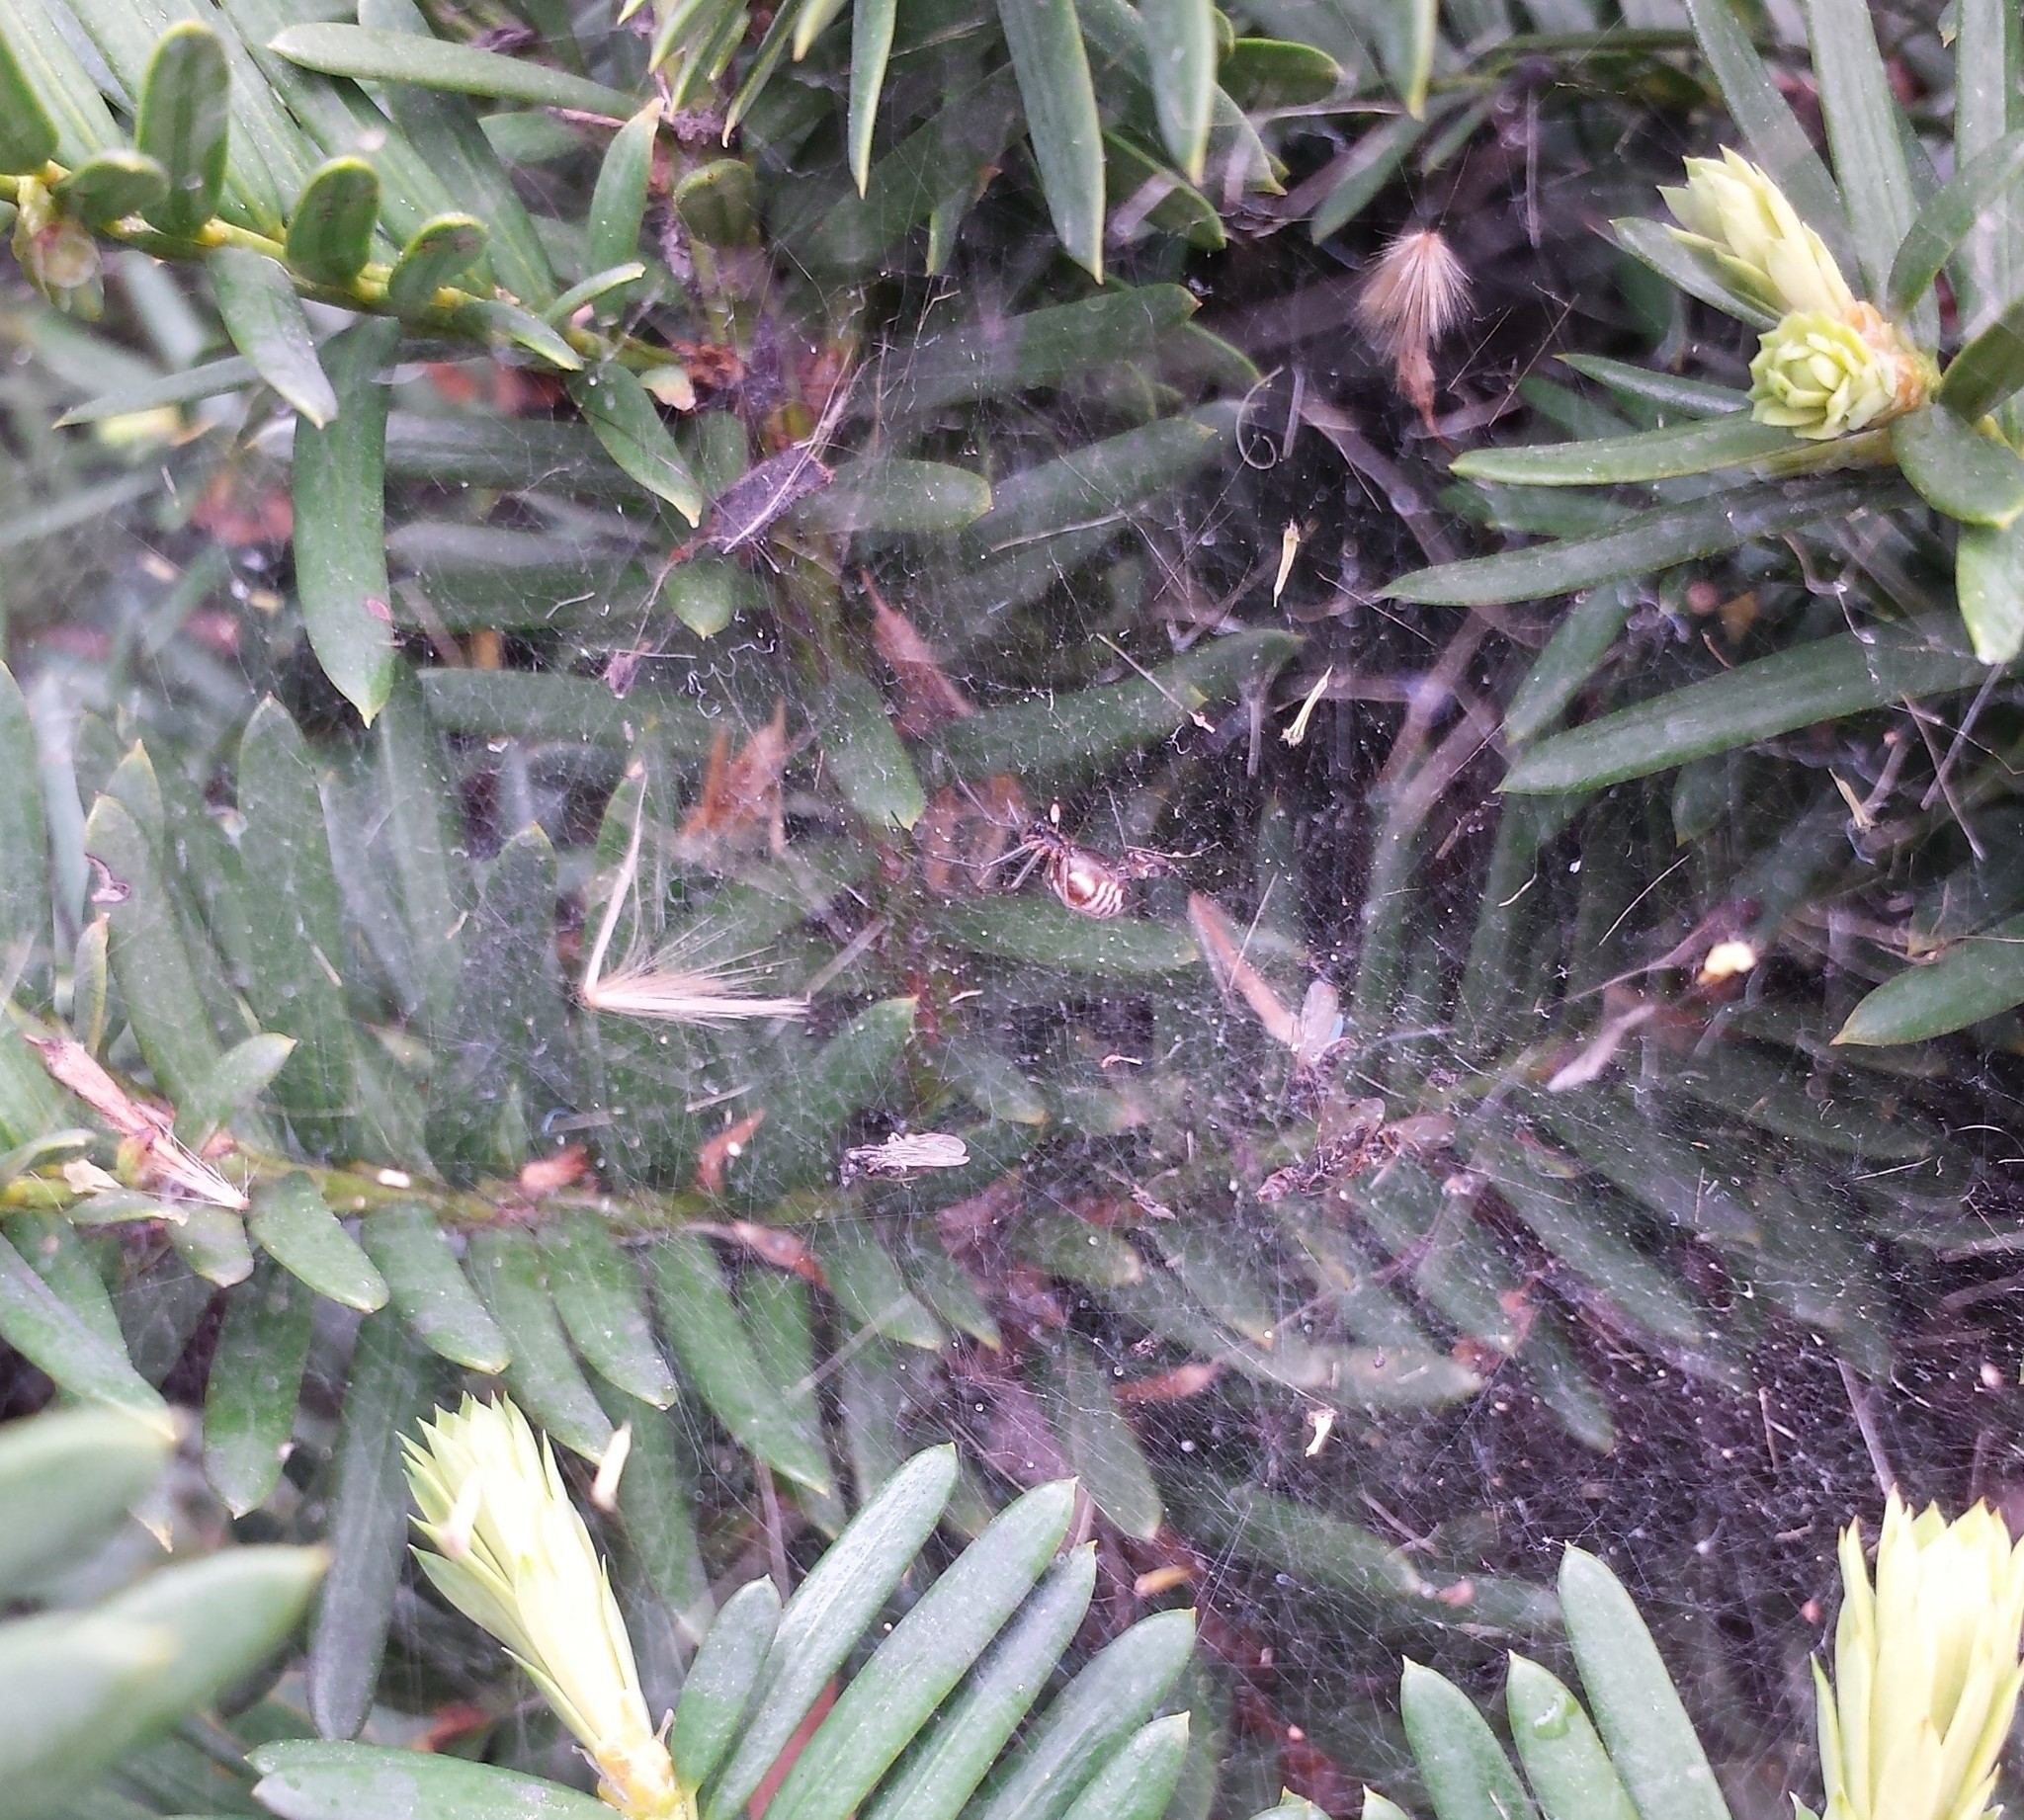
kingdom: Animalia
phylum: Arthropoda
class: Arachnida
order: Araneae
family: Linyphiidae
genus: Frontinella
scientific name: Frontinella pyramitela
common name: Bowl-and-doily spider
